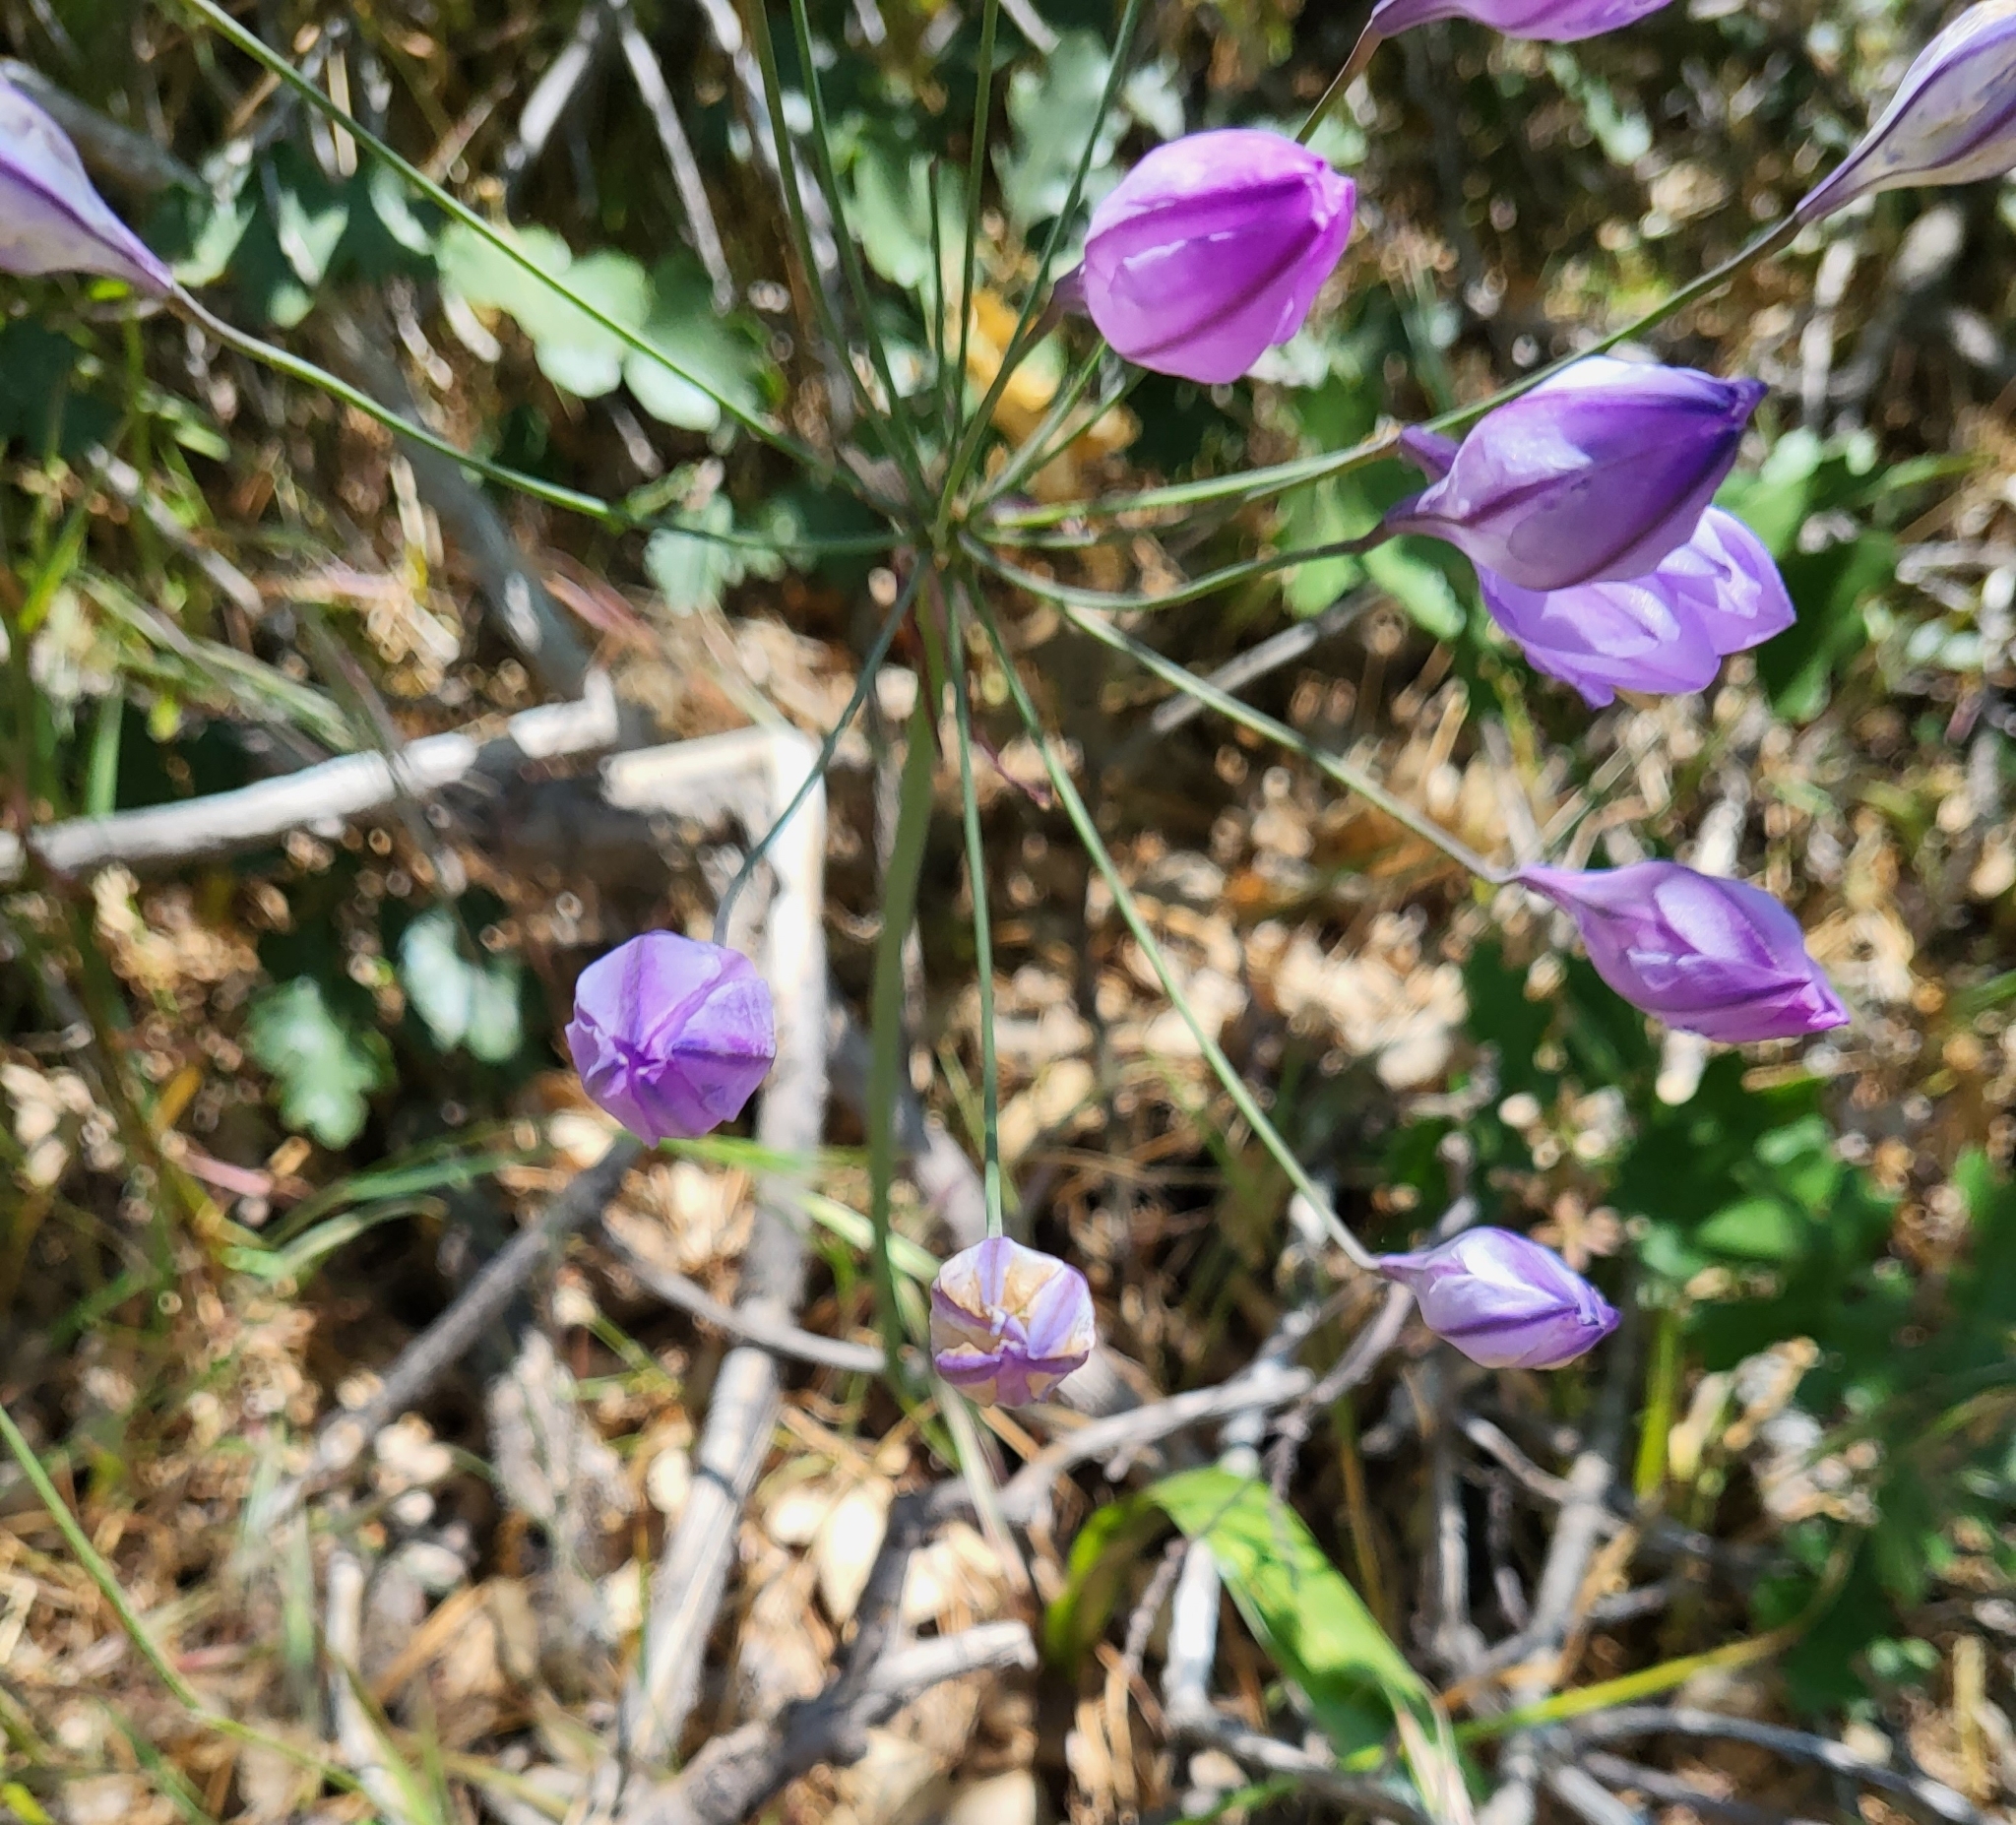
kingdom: Plantae
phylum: Tracheophyta
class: Liliopsida
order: Asparagales
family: Asparagaceae
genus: Triteleia
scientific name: Triteleia laxa
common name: Triplet-lily
